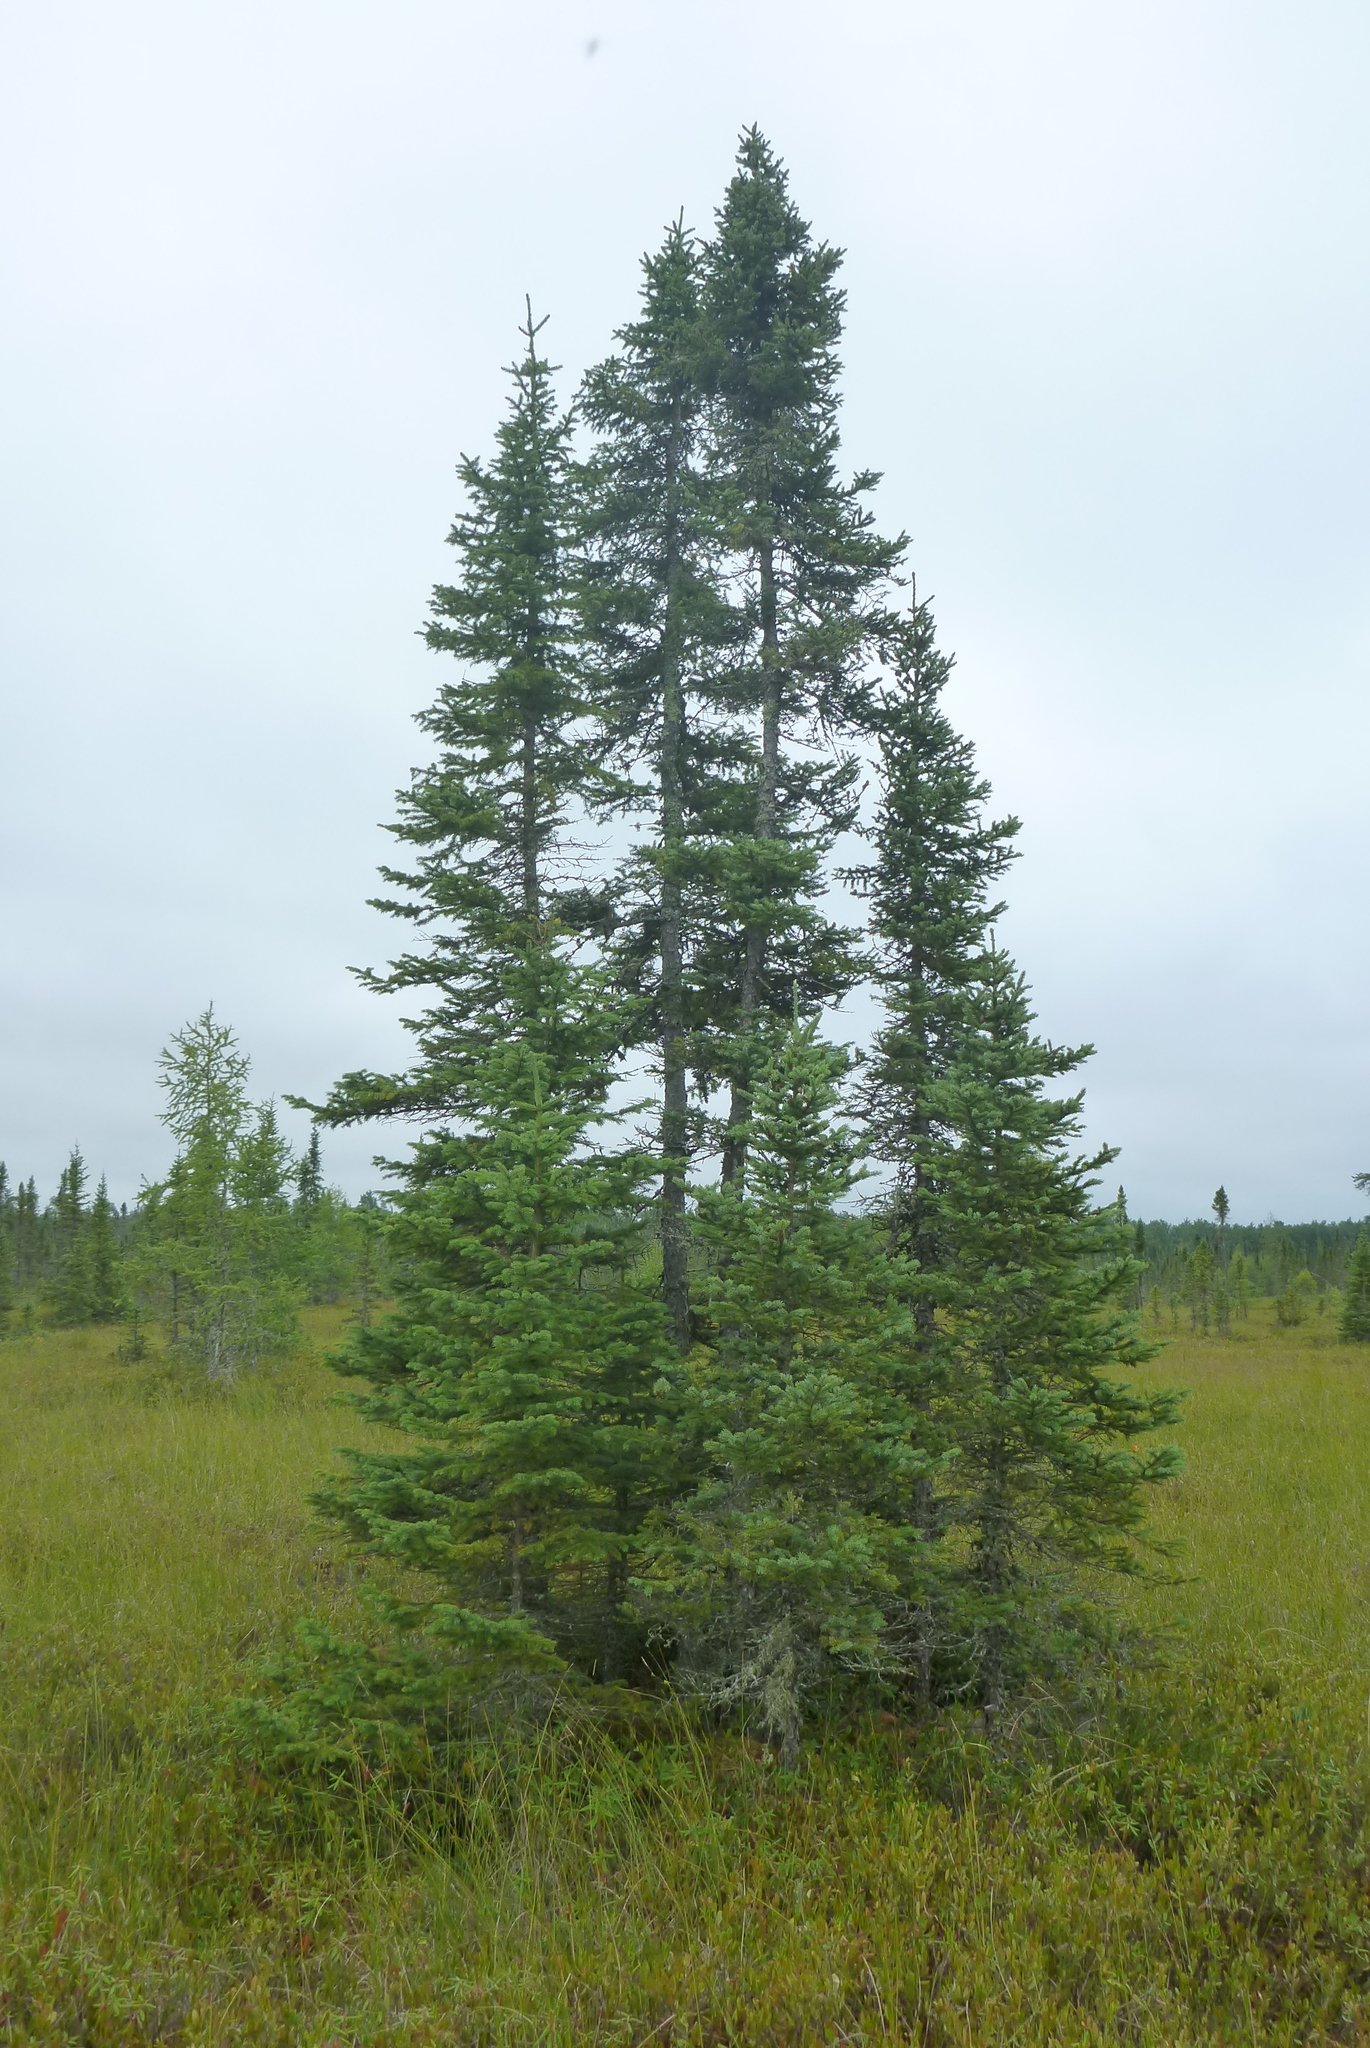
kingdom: Plantae
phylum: Tracheophyta
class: Pinopsida
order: Pinales
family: Pinaceae
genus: Picea
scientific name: Picea mariana
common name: Black spruce
